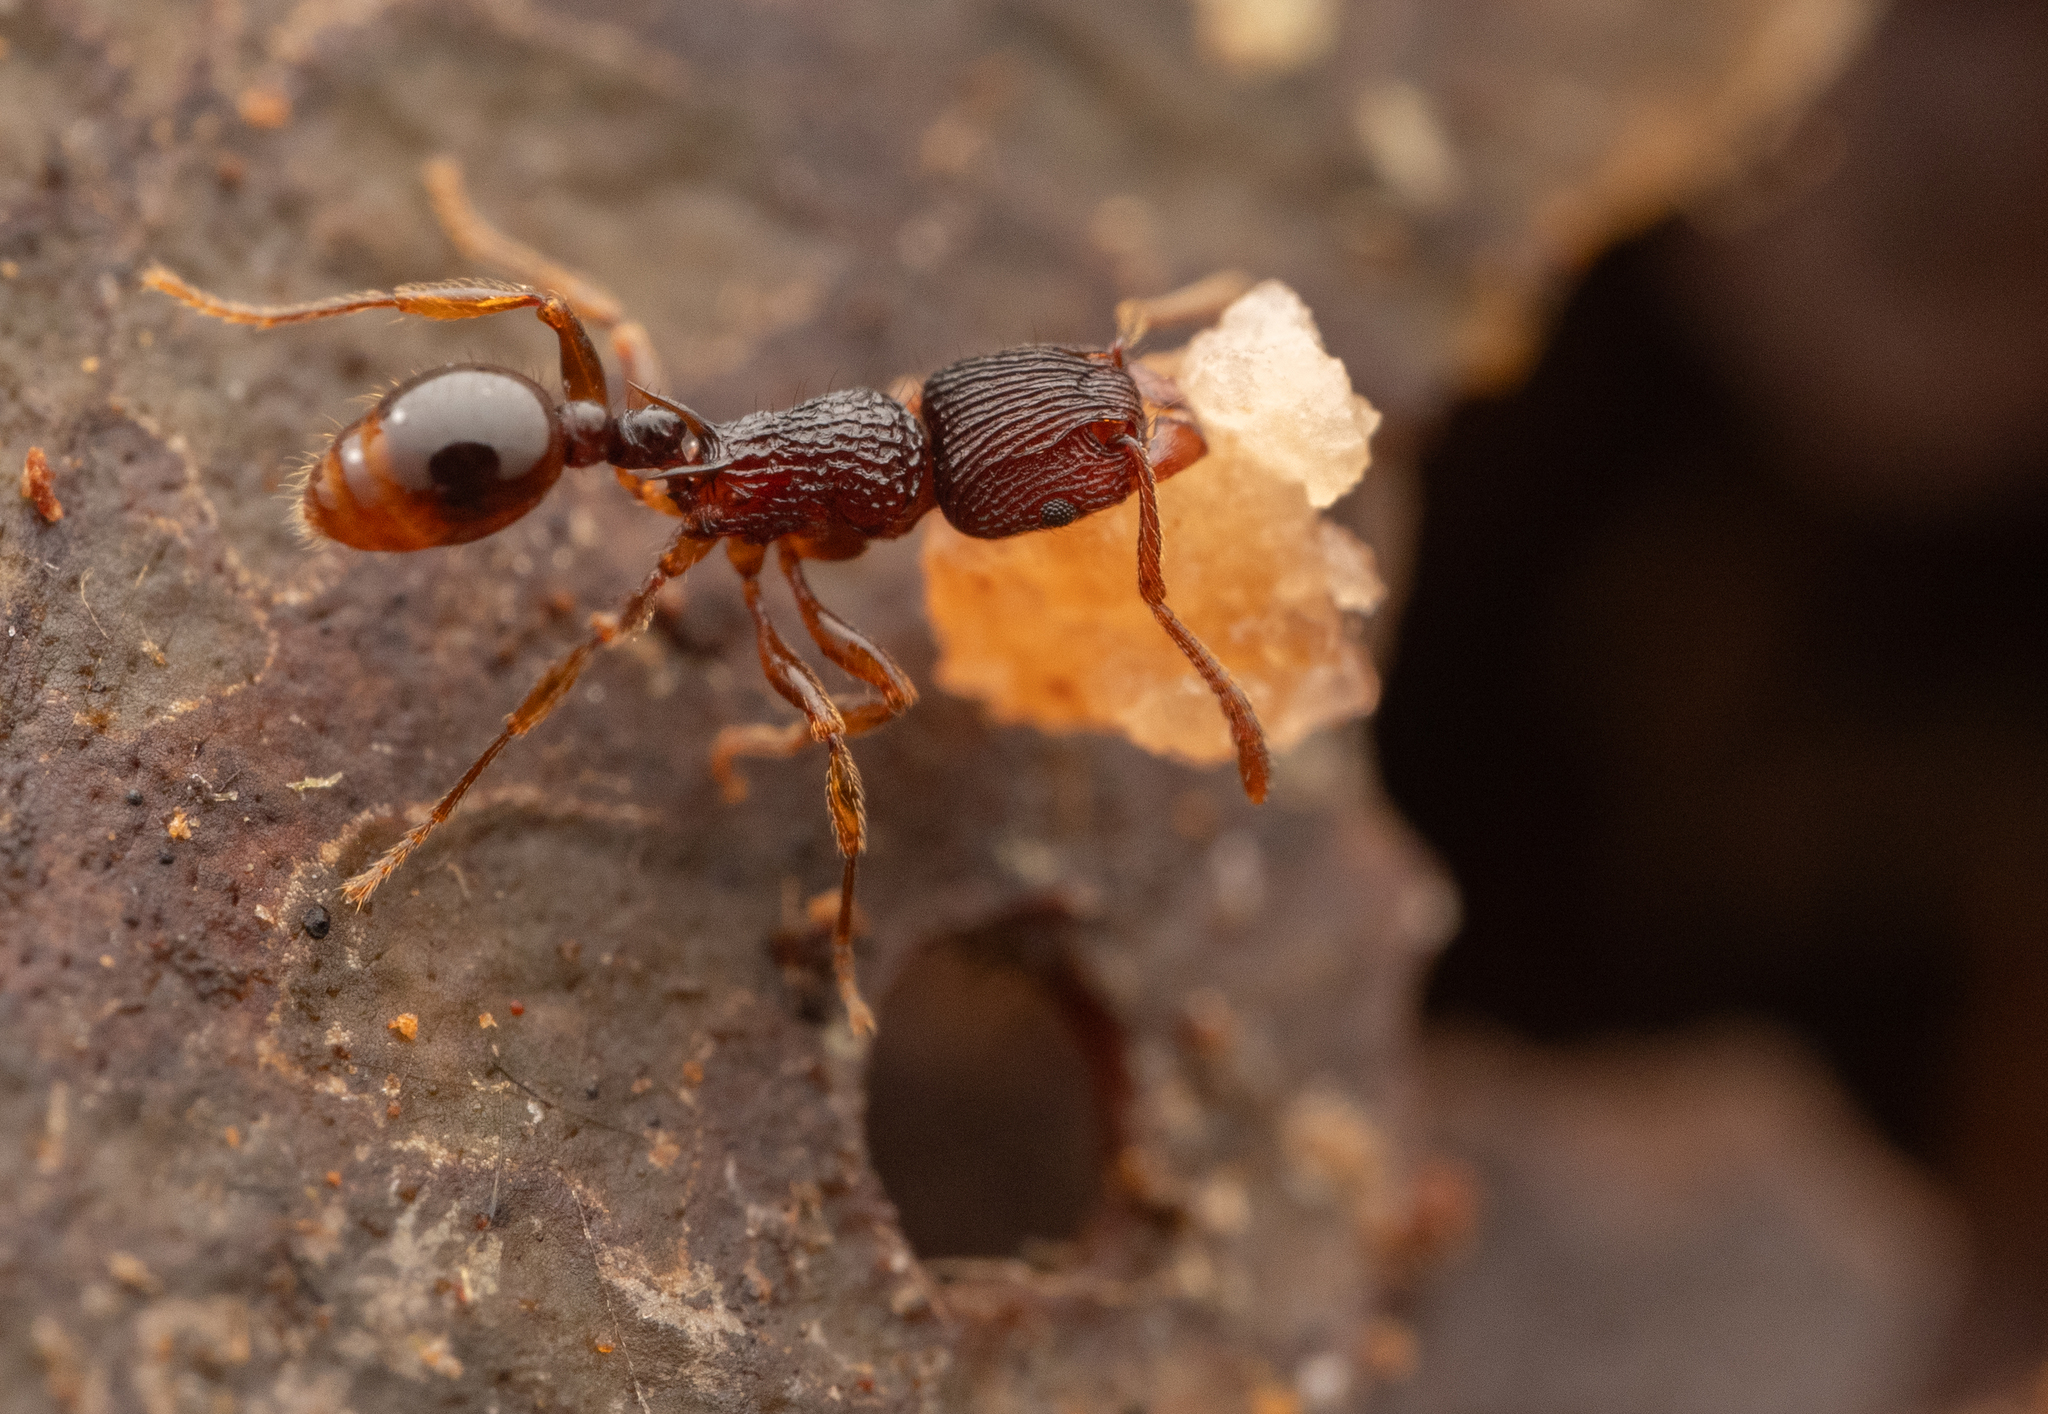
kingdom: Animalia
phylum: Arthropoda
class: Insecta
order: Hymenoptera
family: Formicidae
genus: Tetramorium
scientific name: Tetramorium wagneri
